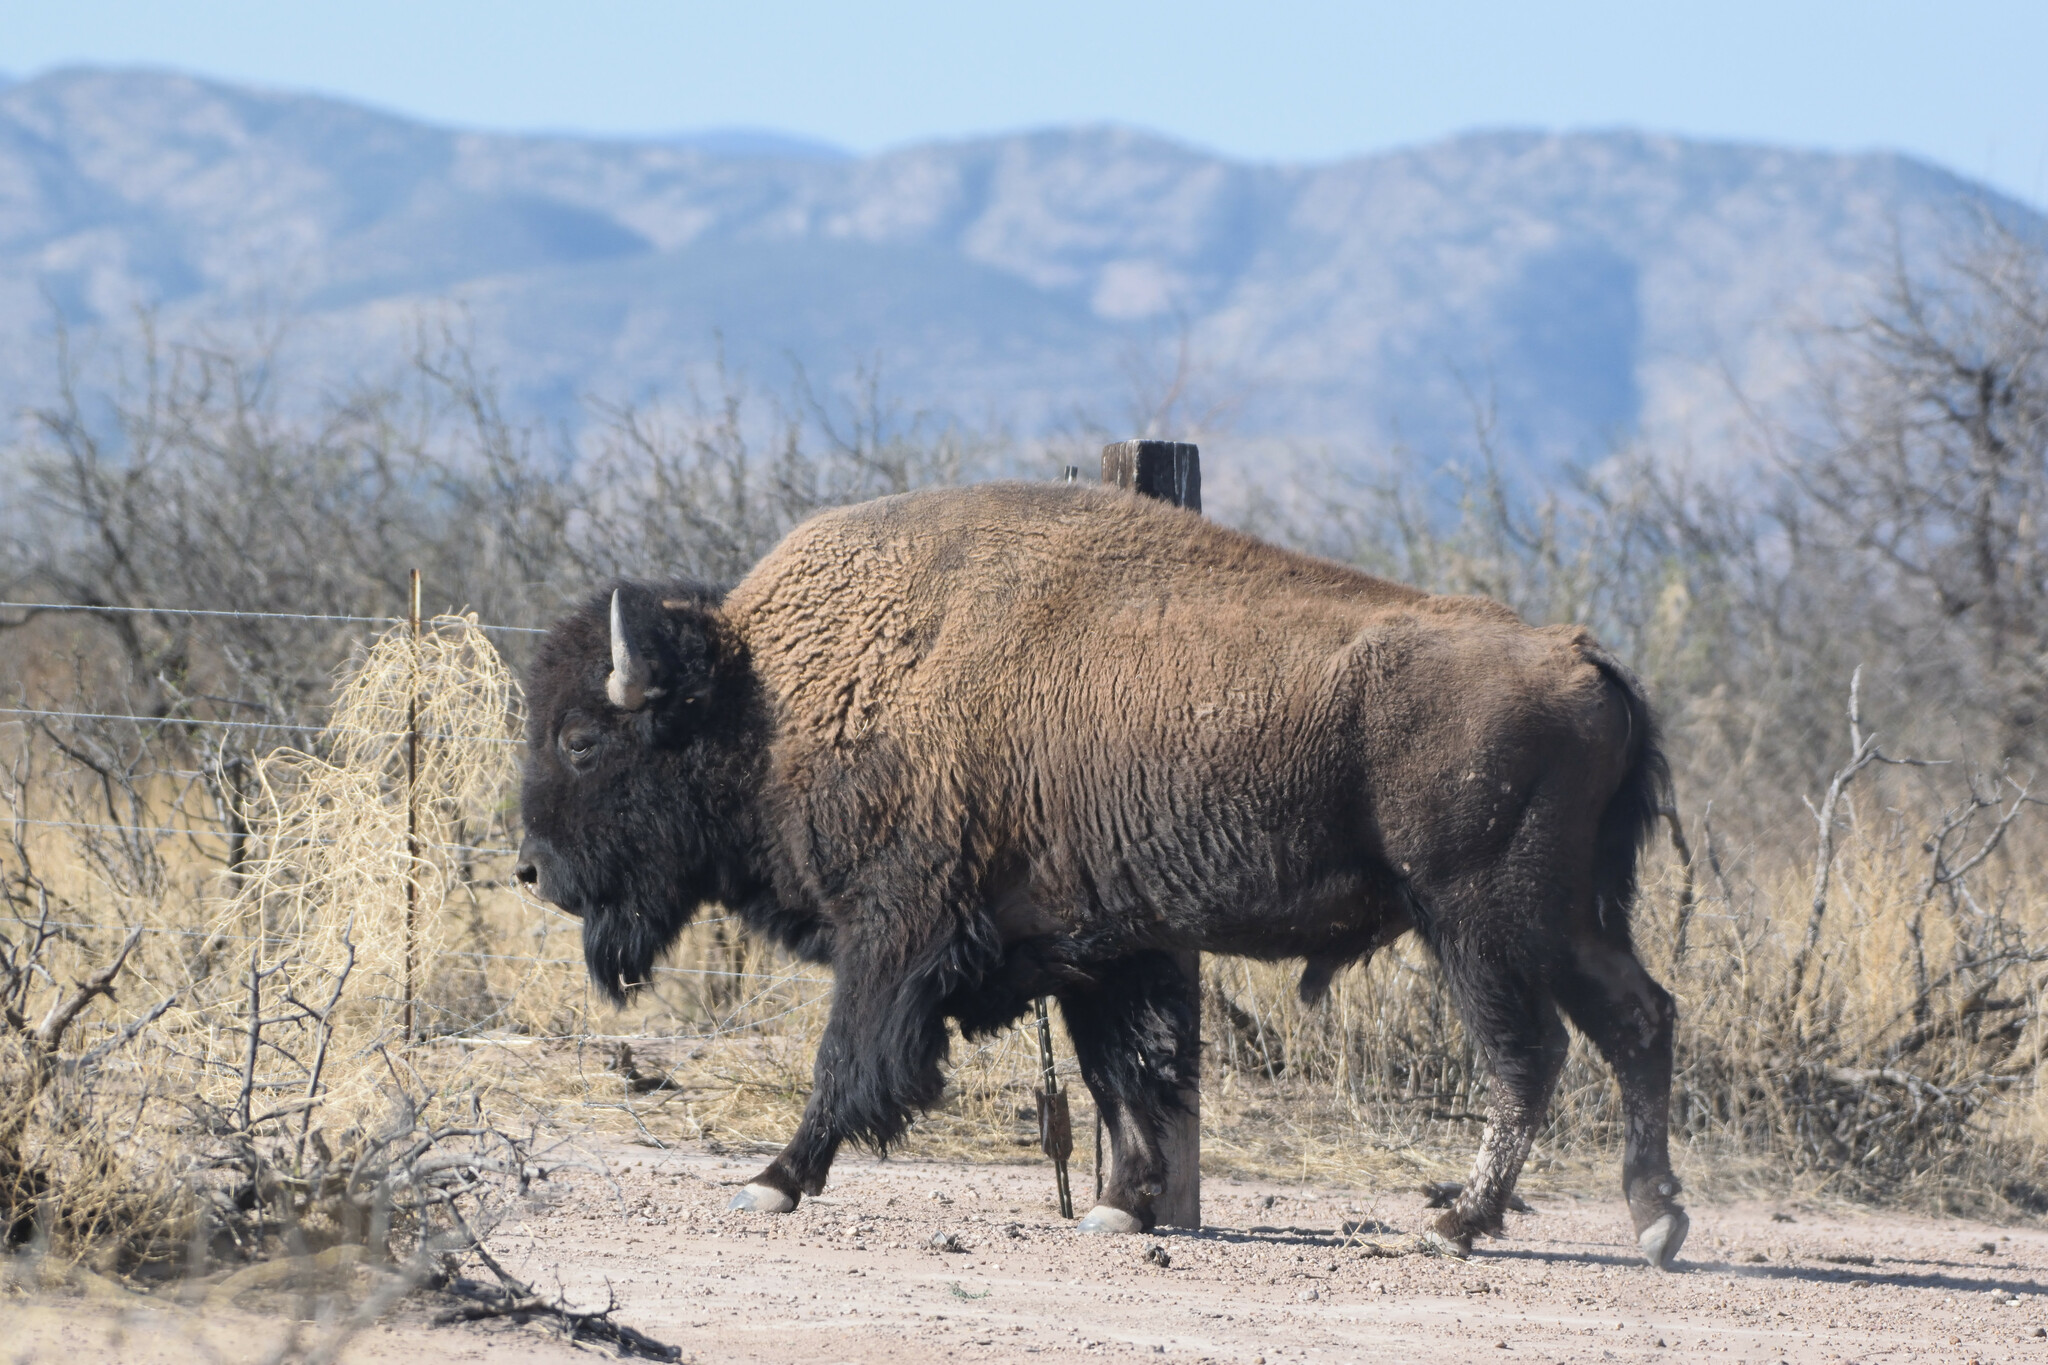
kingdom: Animalia
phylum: Chordata
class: Mammalia
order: Artiodactyla
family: Bovidae
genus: Bison
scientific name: Bison bison
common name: American bison
